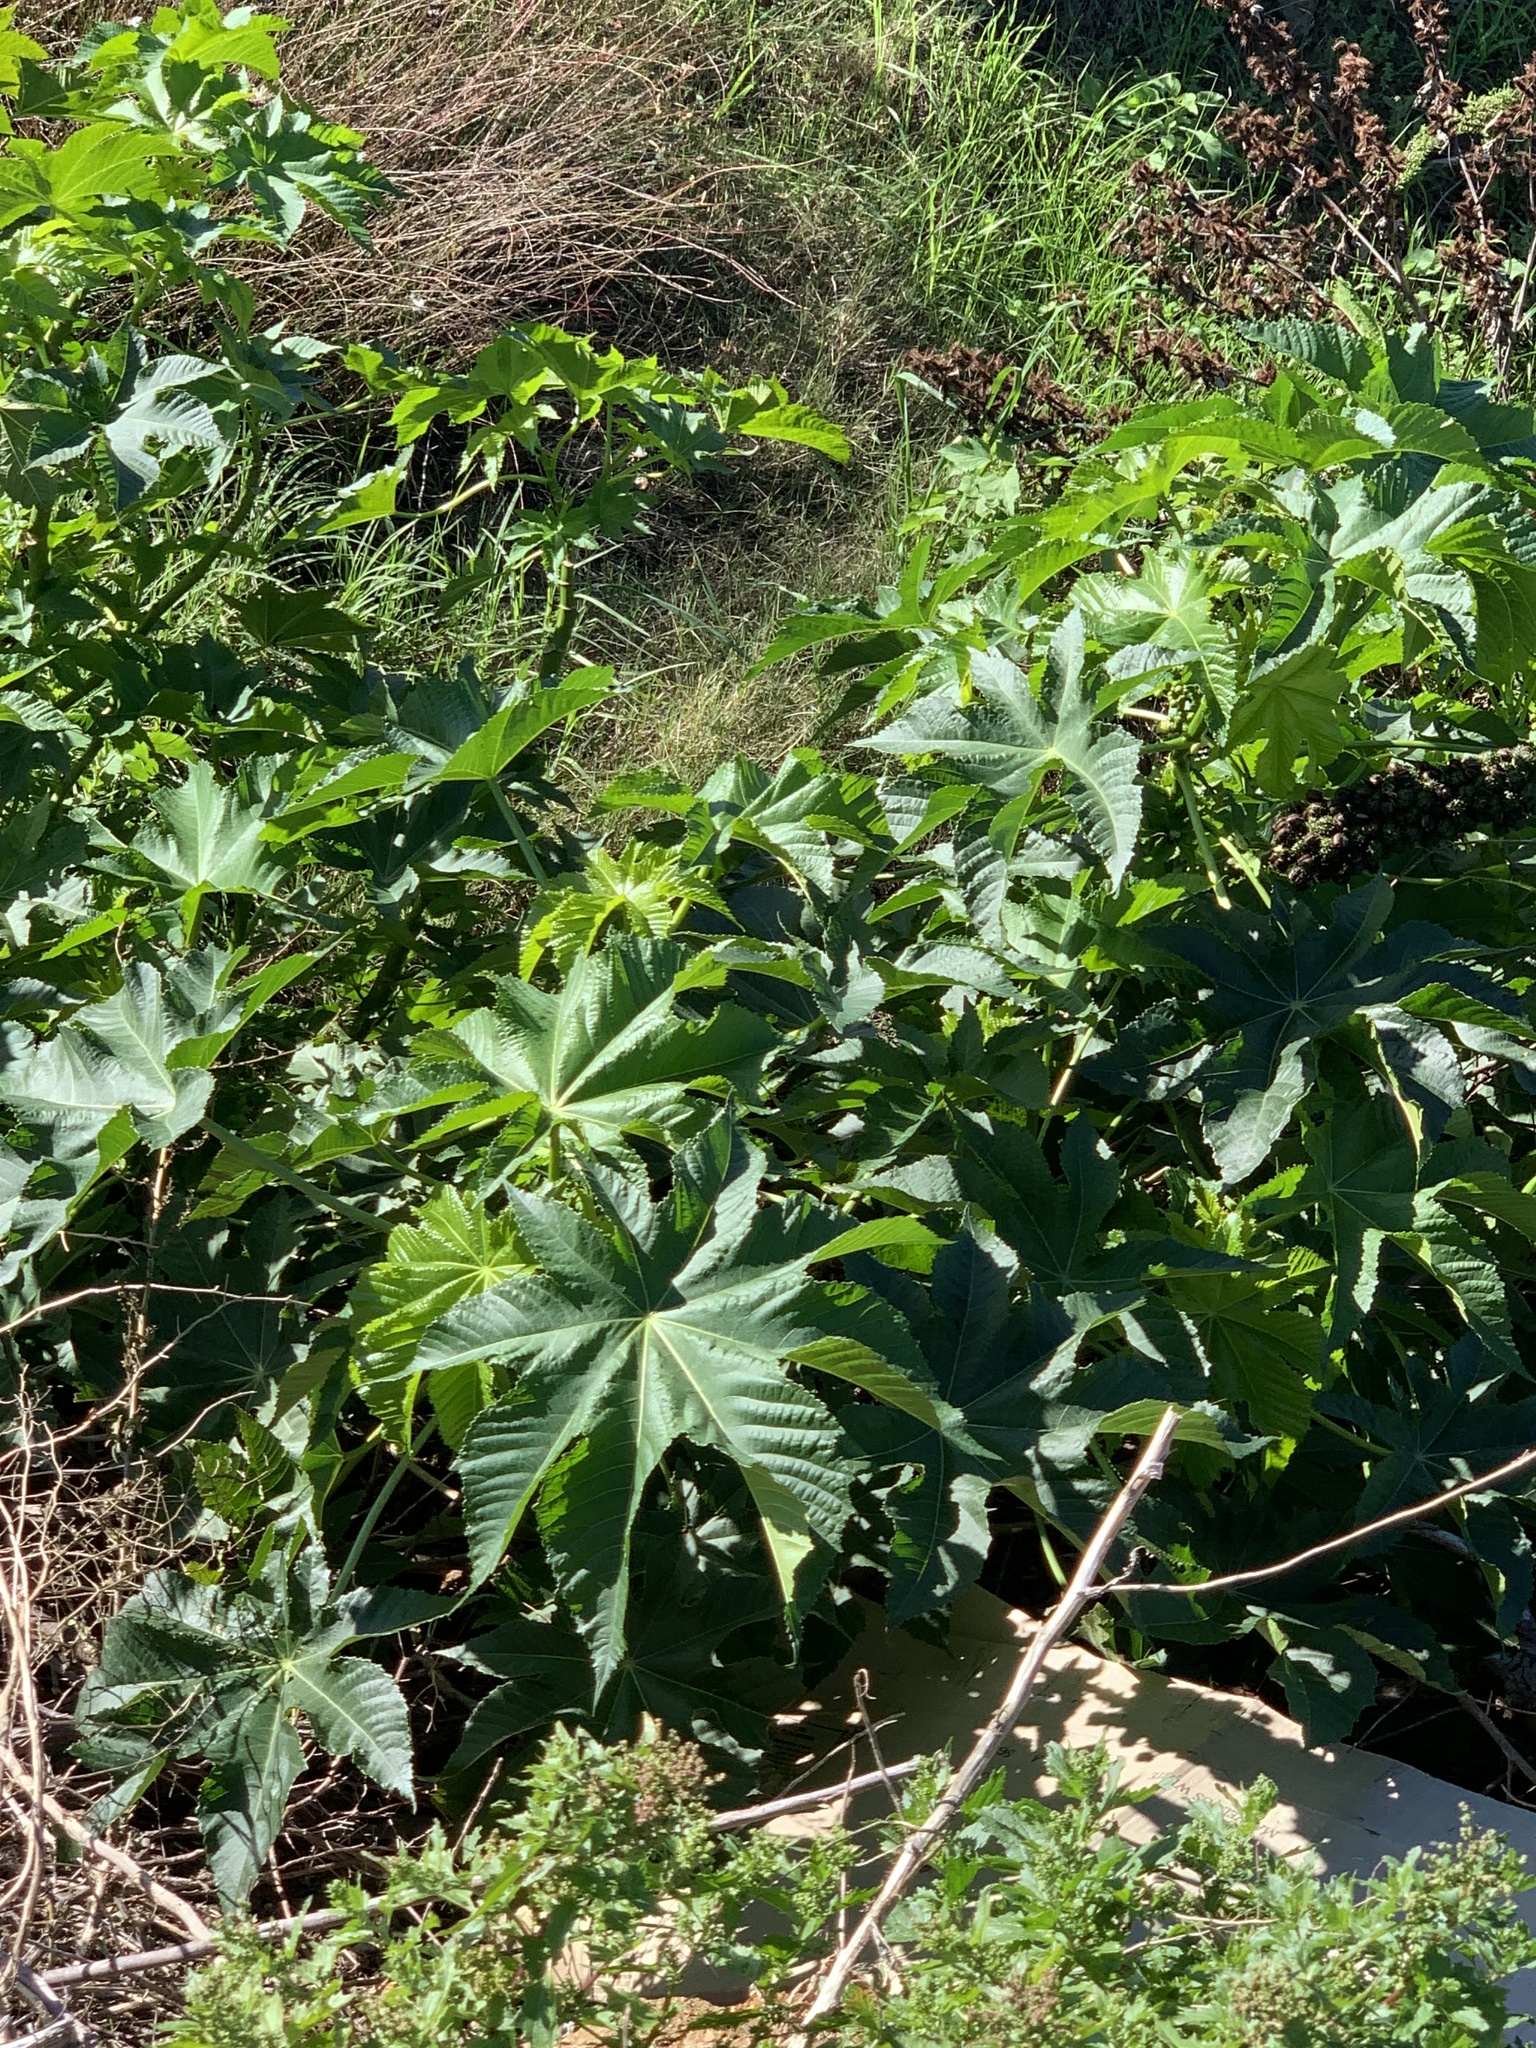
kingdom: Plantae
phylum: Tracheophyta
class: Magnoliopsida
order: Malpighiales
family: Euphorbiaceae
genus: Ricinus
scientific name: Ricinus communis
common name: Castor-oil-plant
